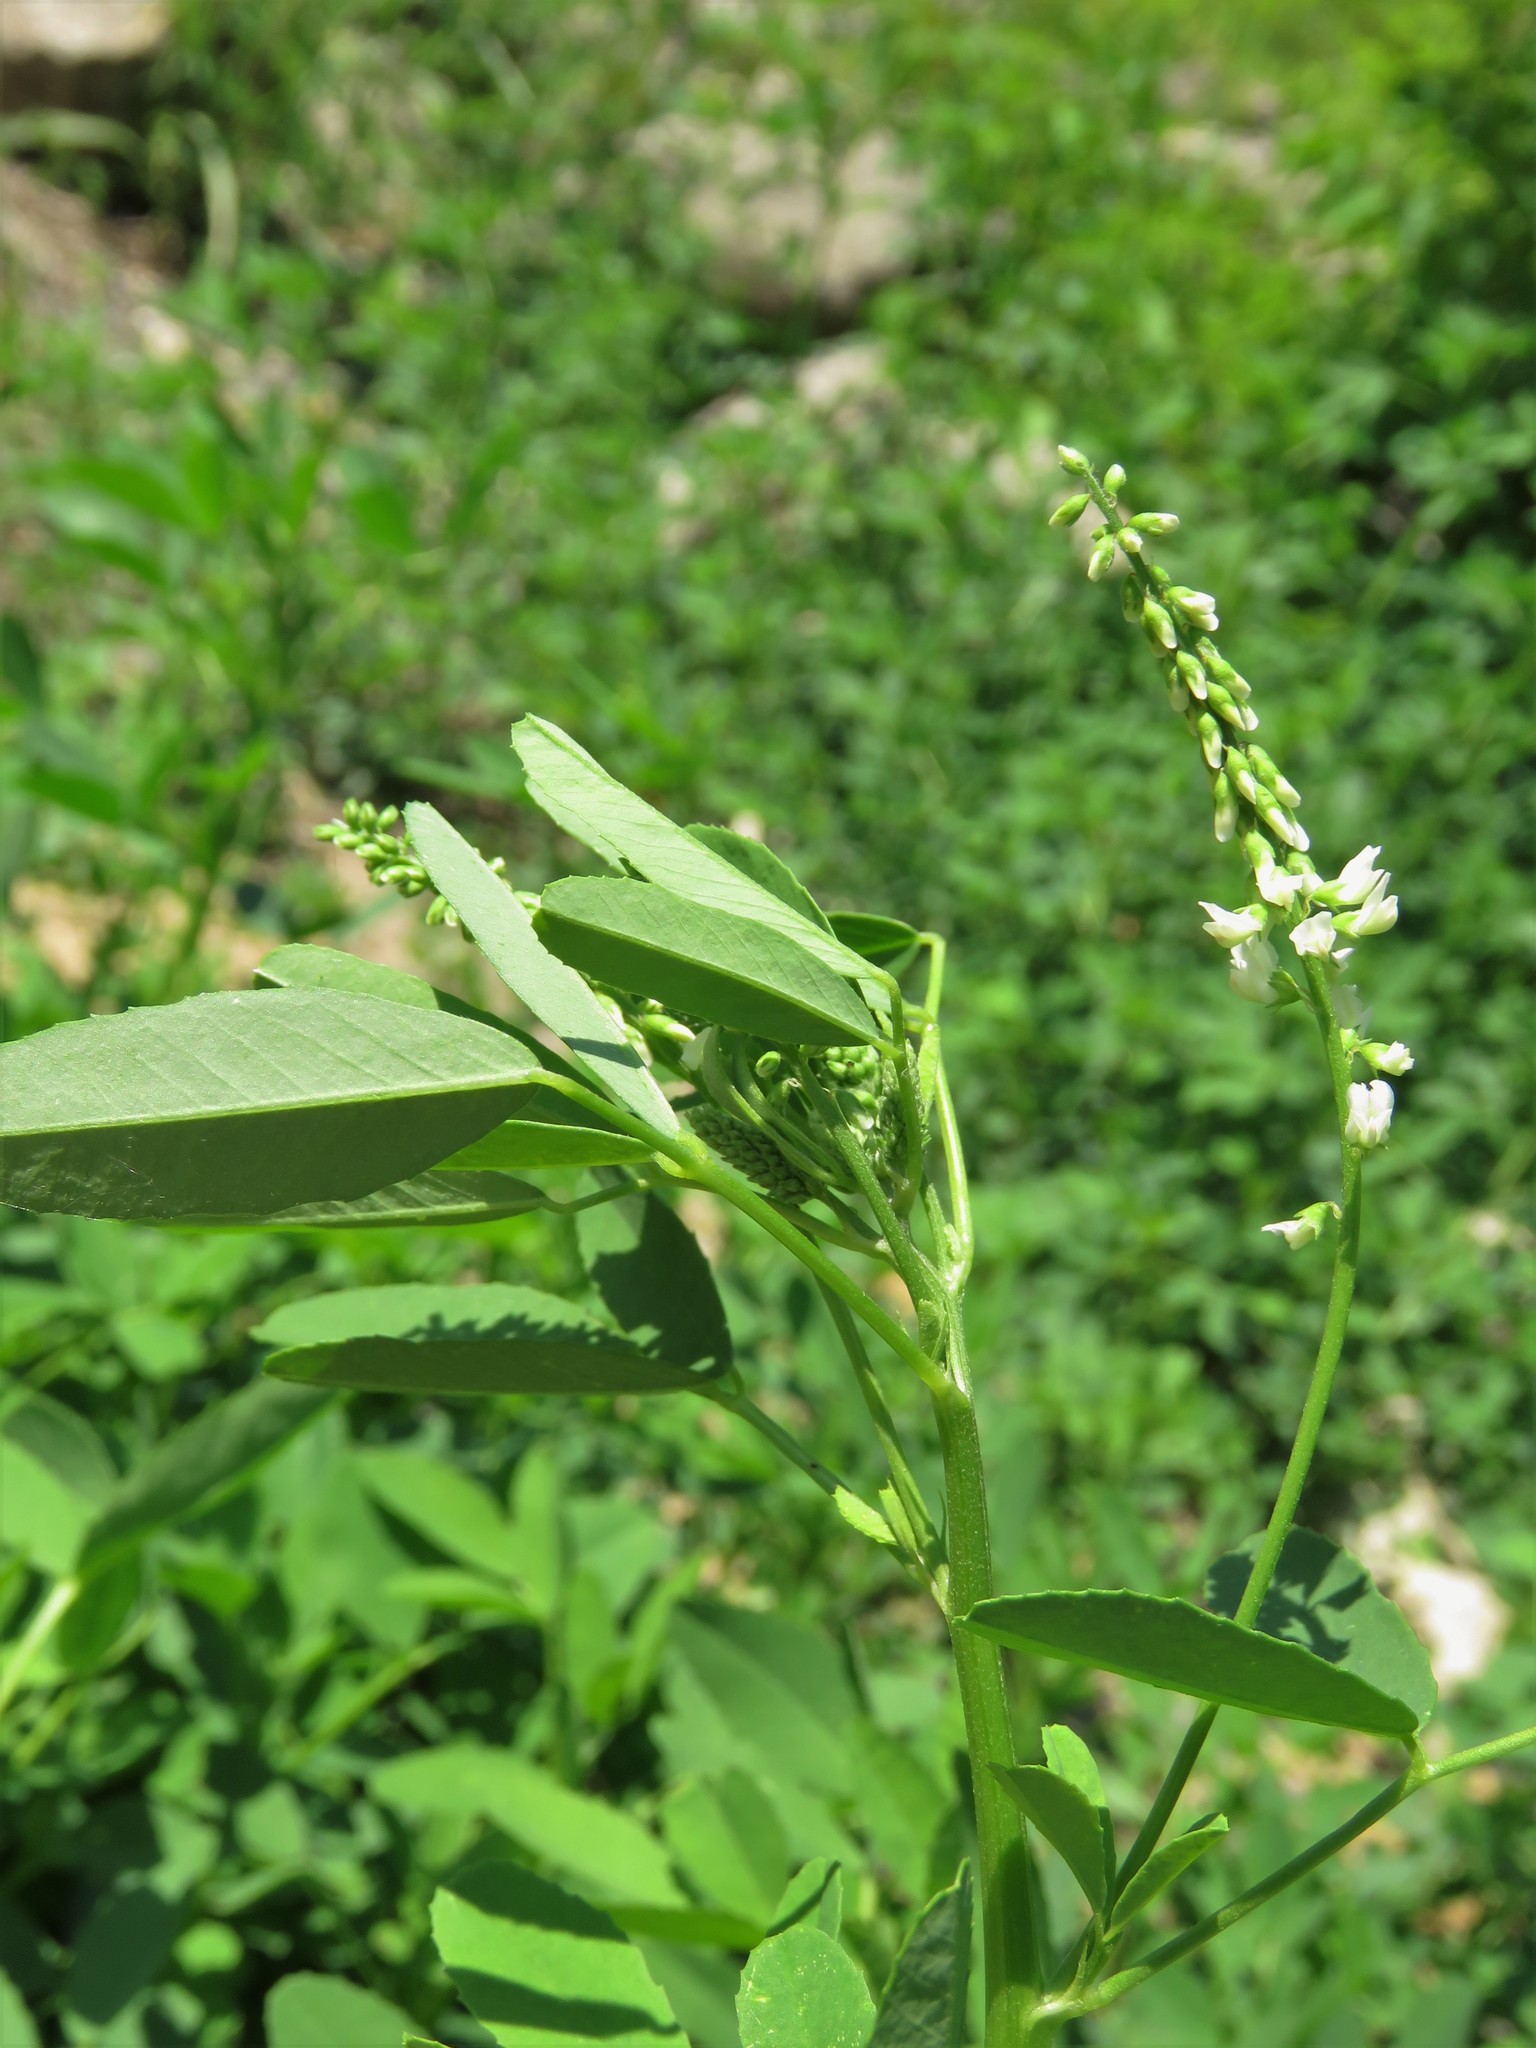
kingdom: Plantae
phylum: Tracheophyta
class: Magnoliopsida
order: Fabales
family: Fabaceae
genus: Melilotus
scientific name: Melilotus albus
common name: White melilot
